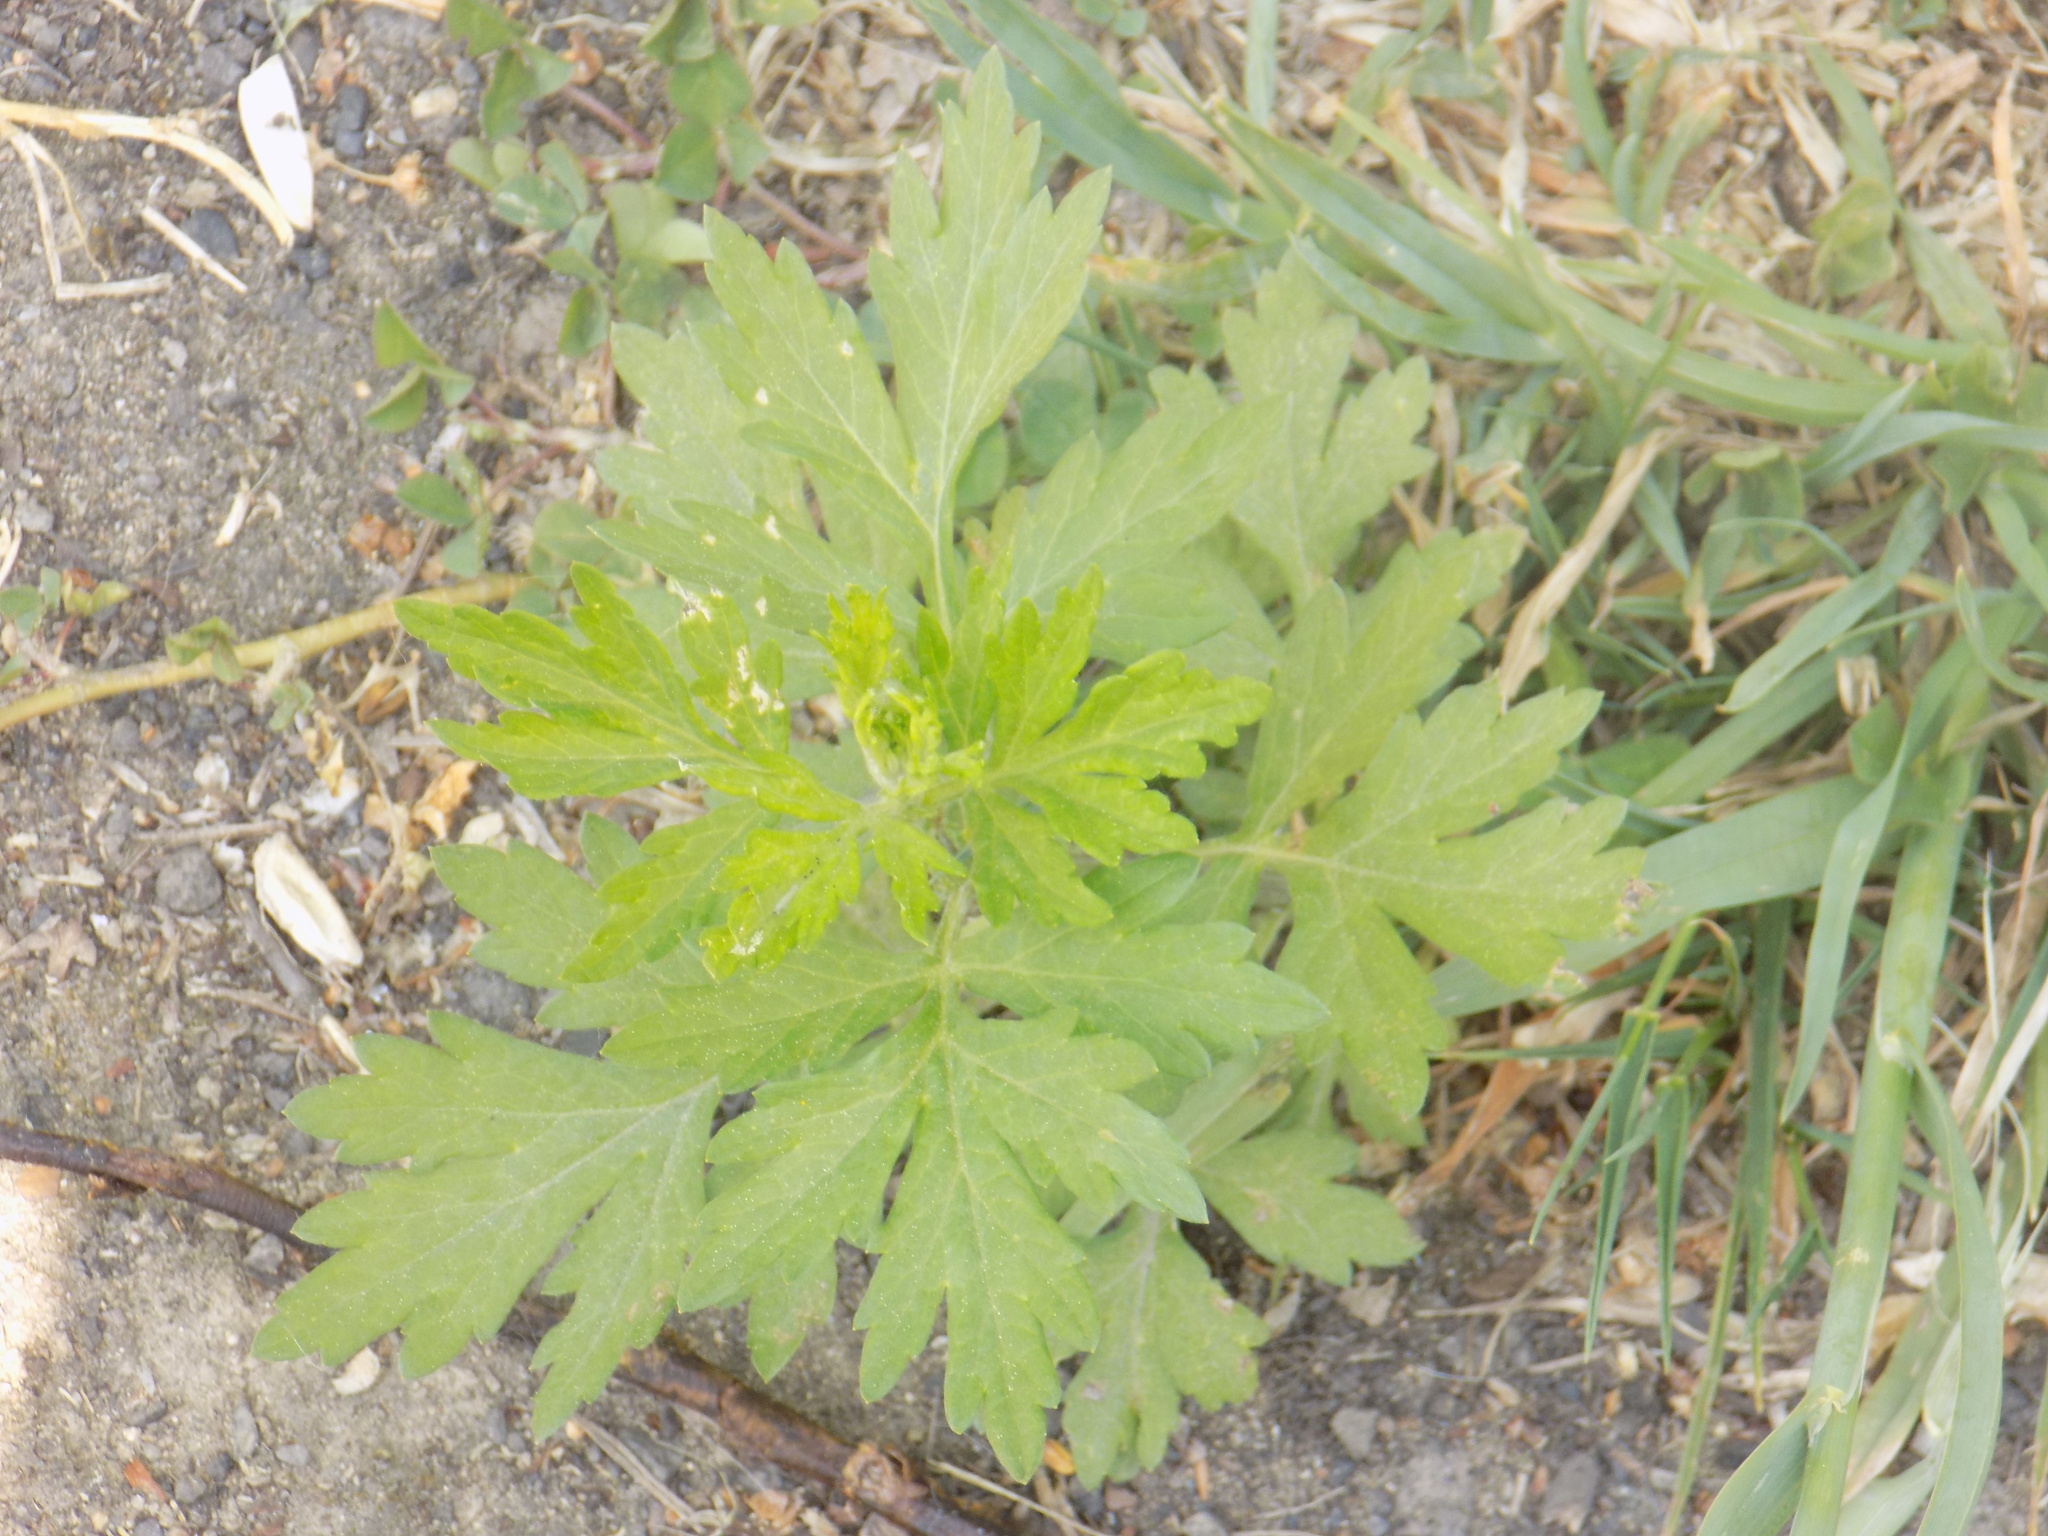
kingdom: Plantae
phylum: Tracheophyta
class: Magnoliopsida
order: Asterales
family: Asteraceae
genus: Artemisia
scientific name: Artemisia vulgaris
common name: Mugwort
